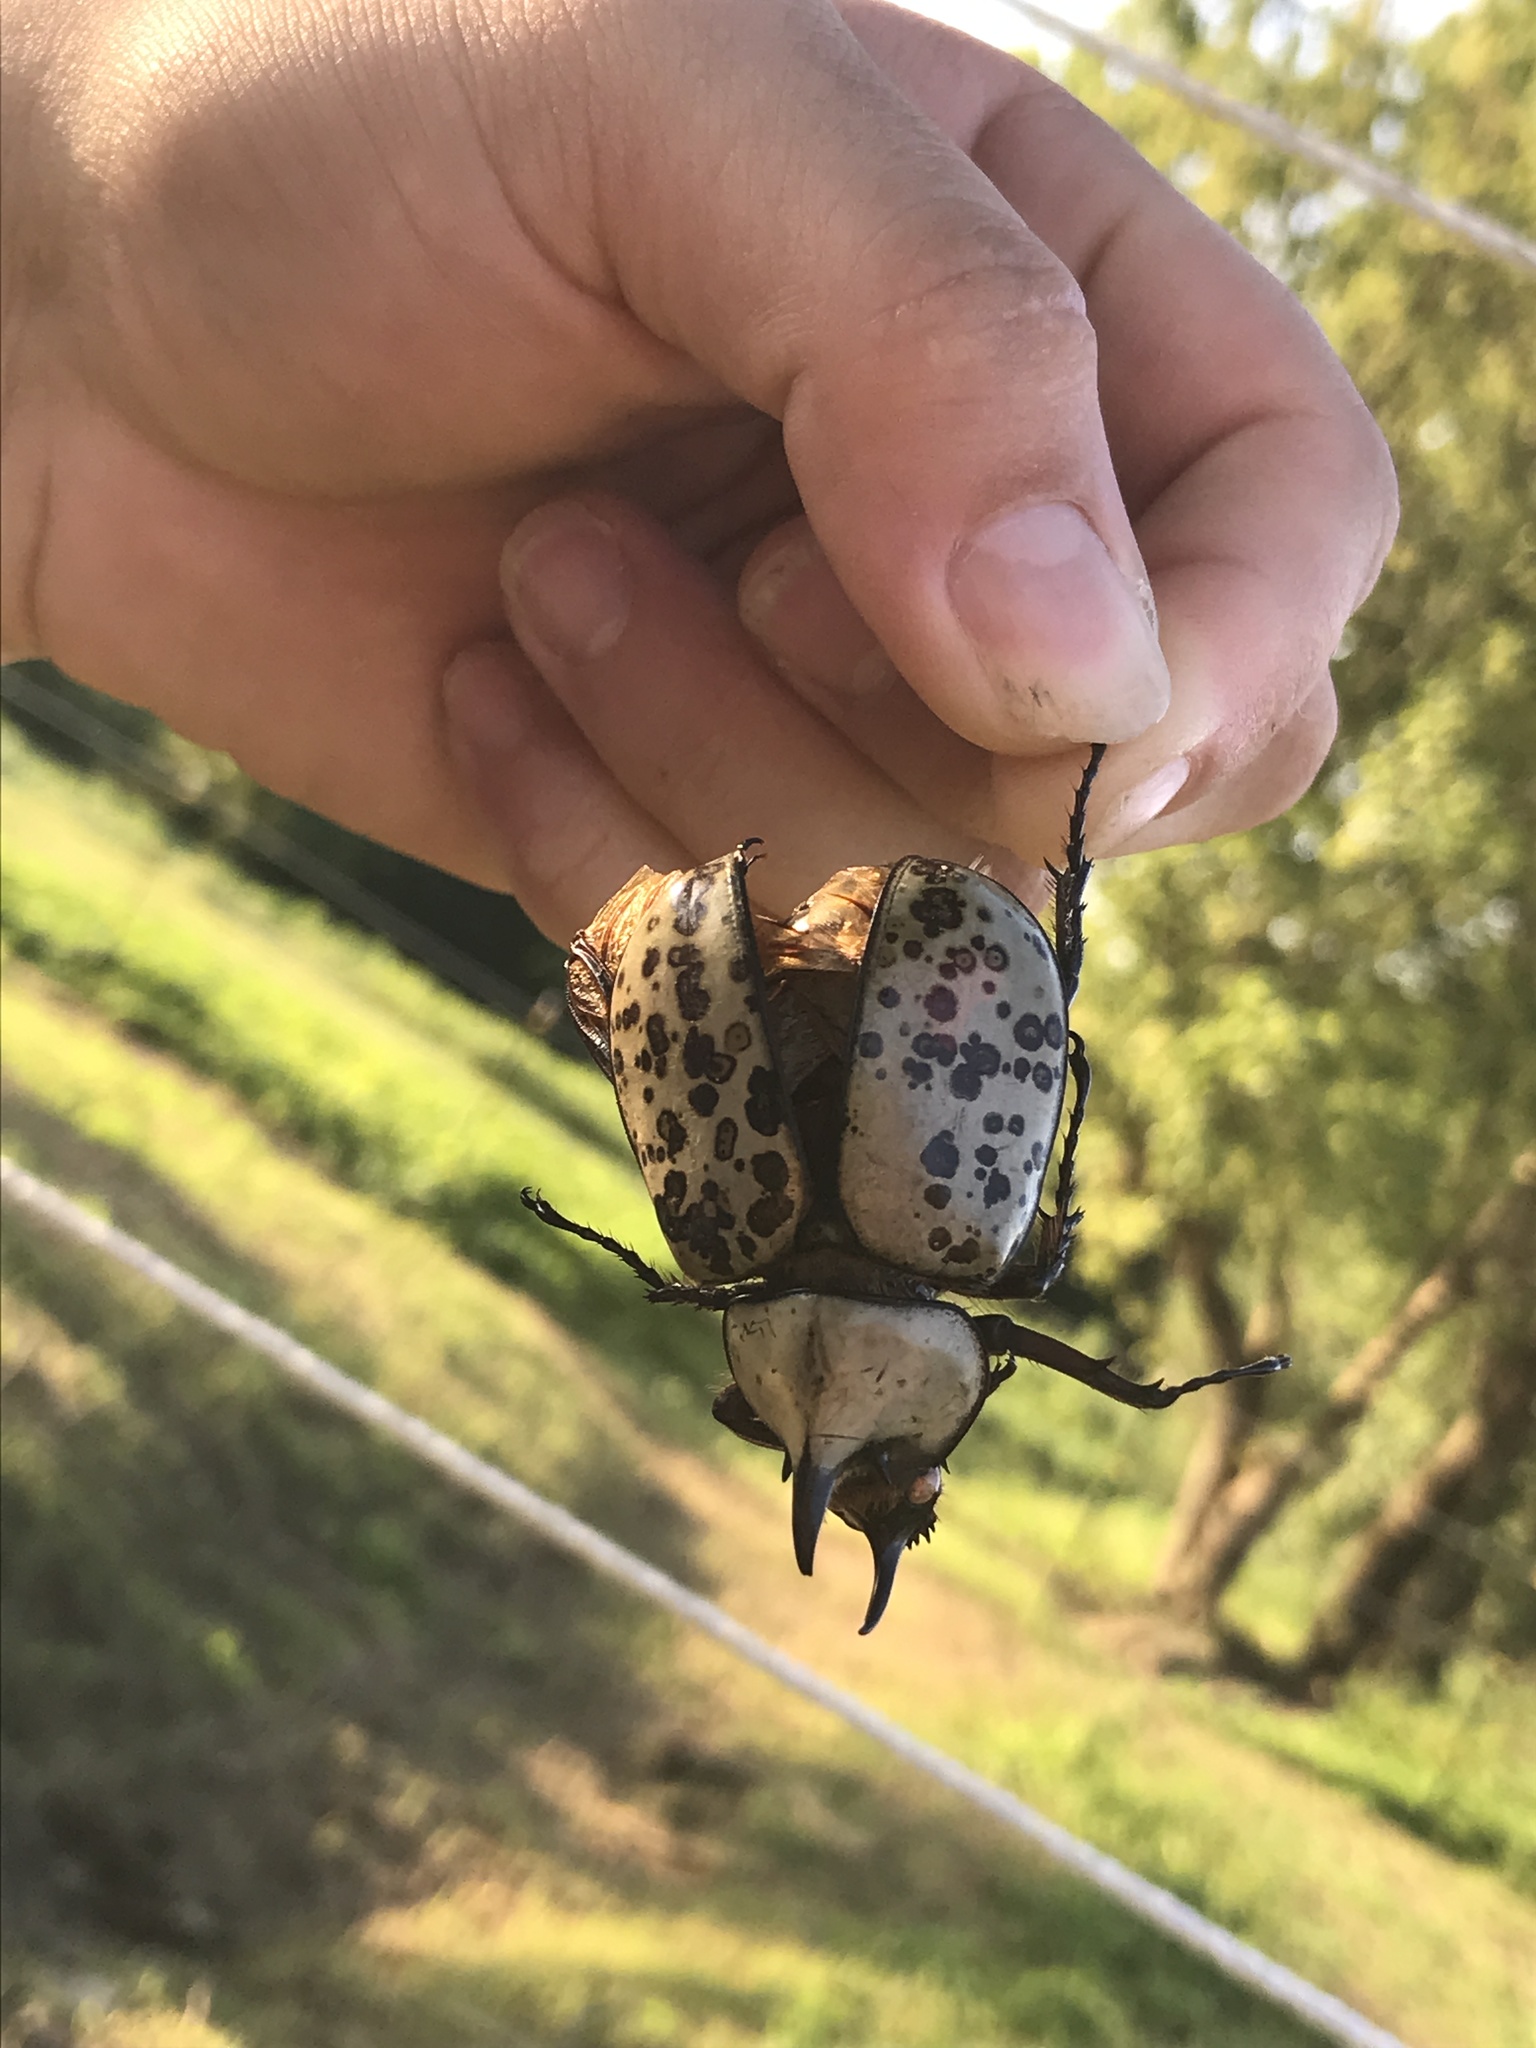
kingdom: Animalia
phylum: Arthropoda
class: Insecta
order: Coleoptera
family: Scarabaeidae
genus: Dynastes
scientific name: Dynastes tityus
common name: Eastern hercules beetle
